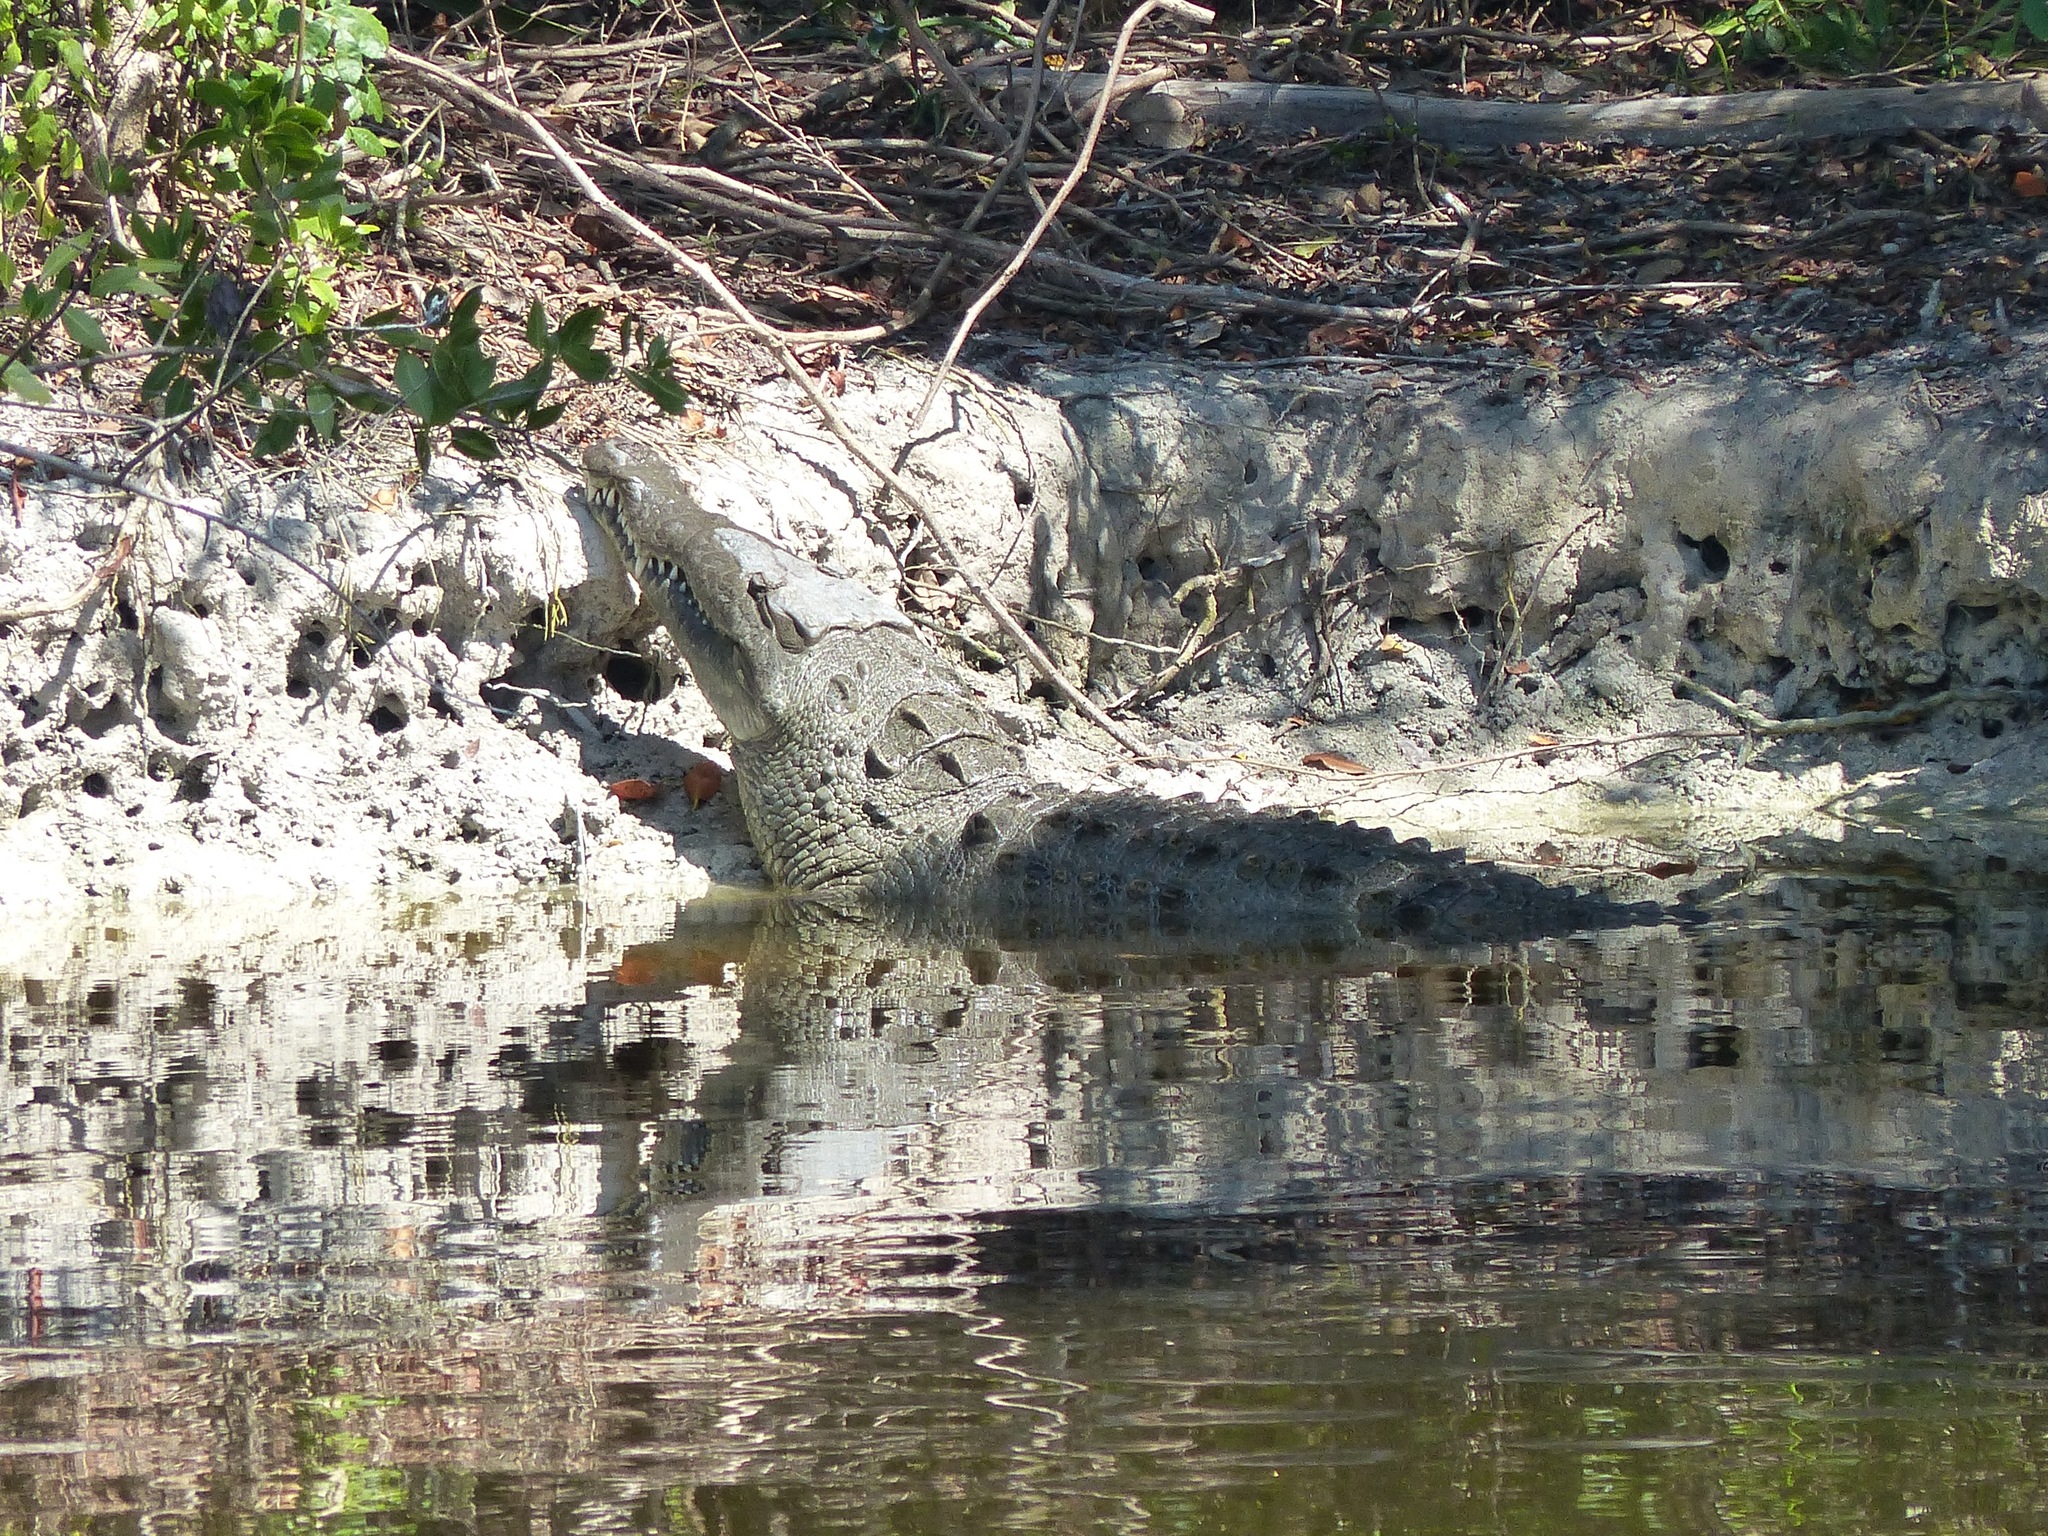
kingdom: Animalia
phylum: Chordata
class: Crocodylia
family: Crocodylidae
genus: Crocodylus
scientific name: Crocodylus acutus
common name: American crocodile
